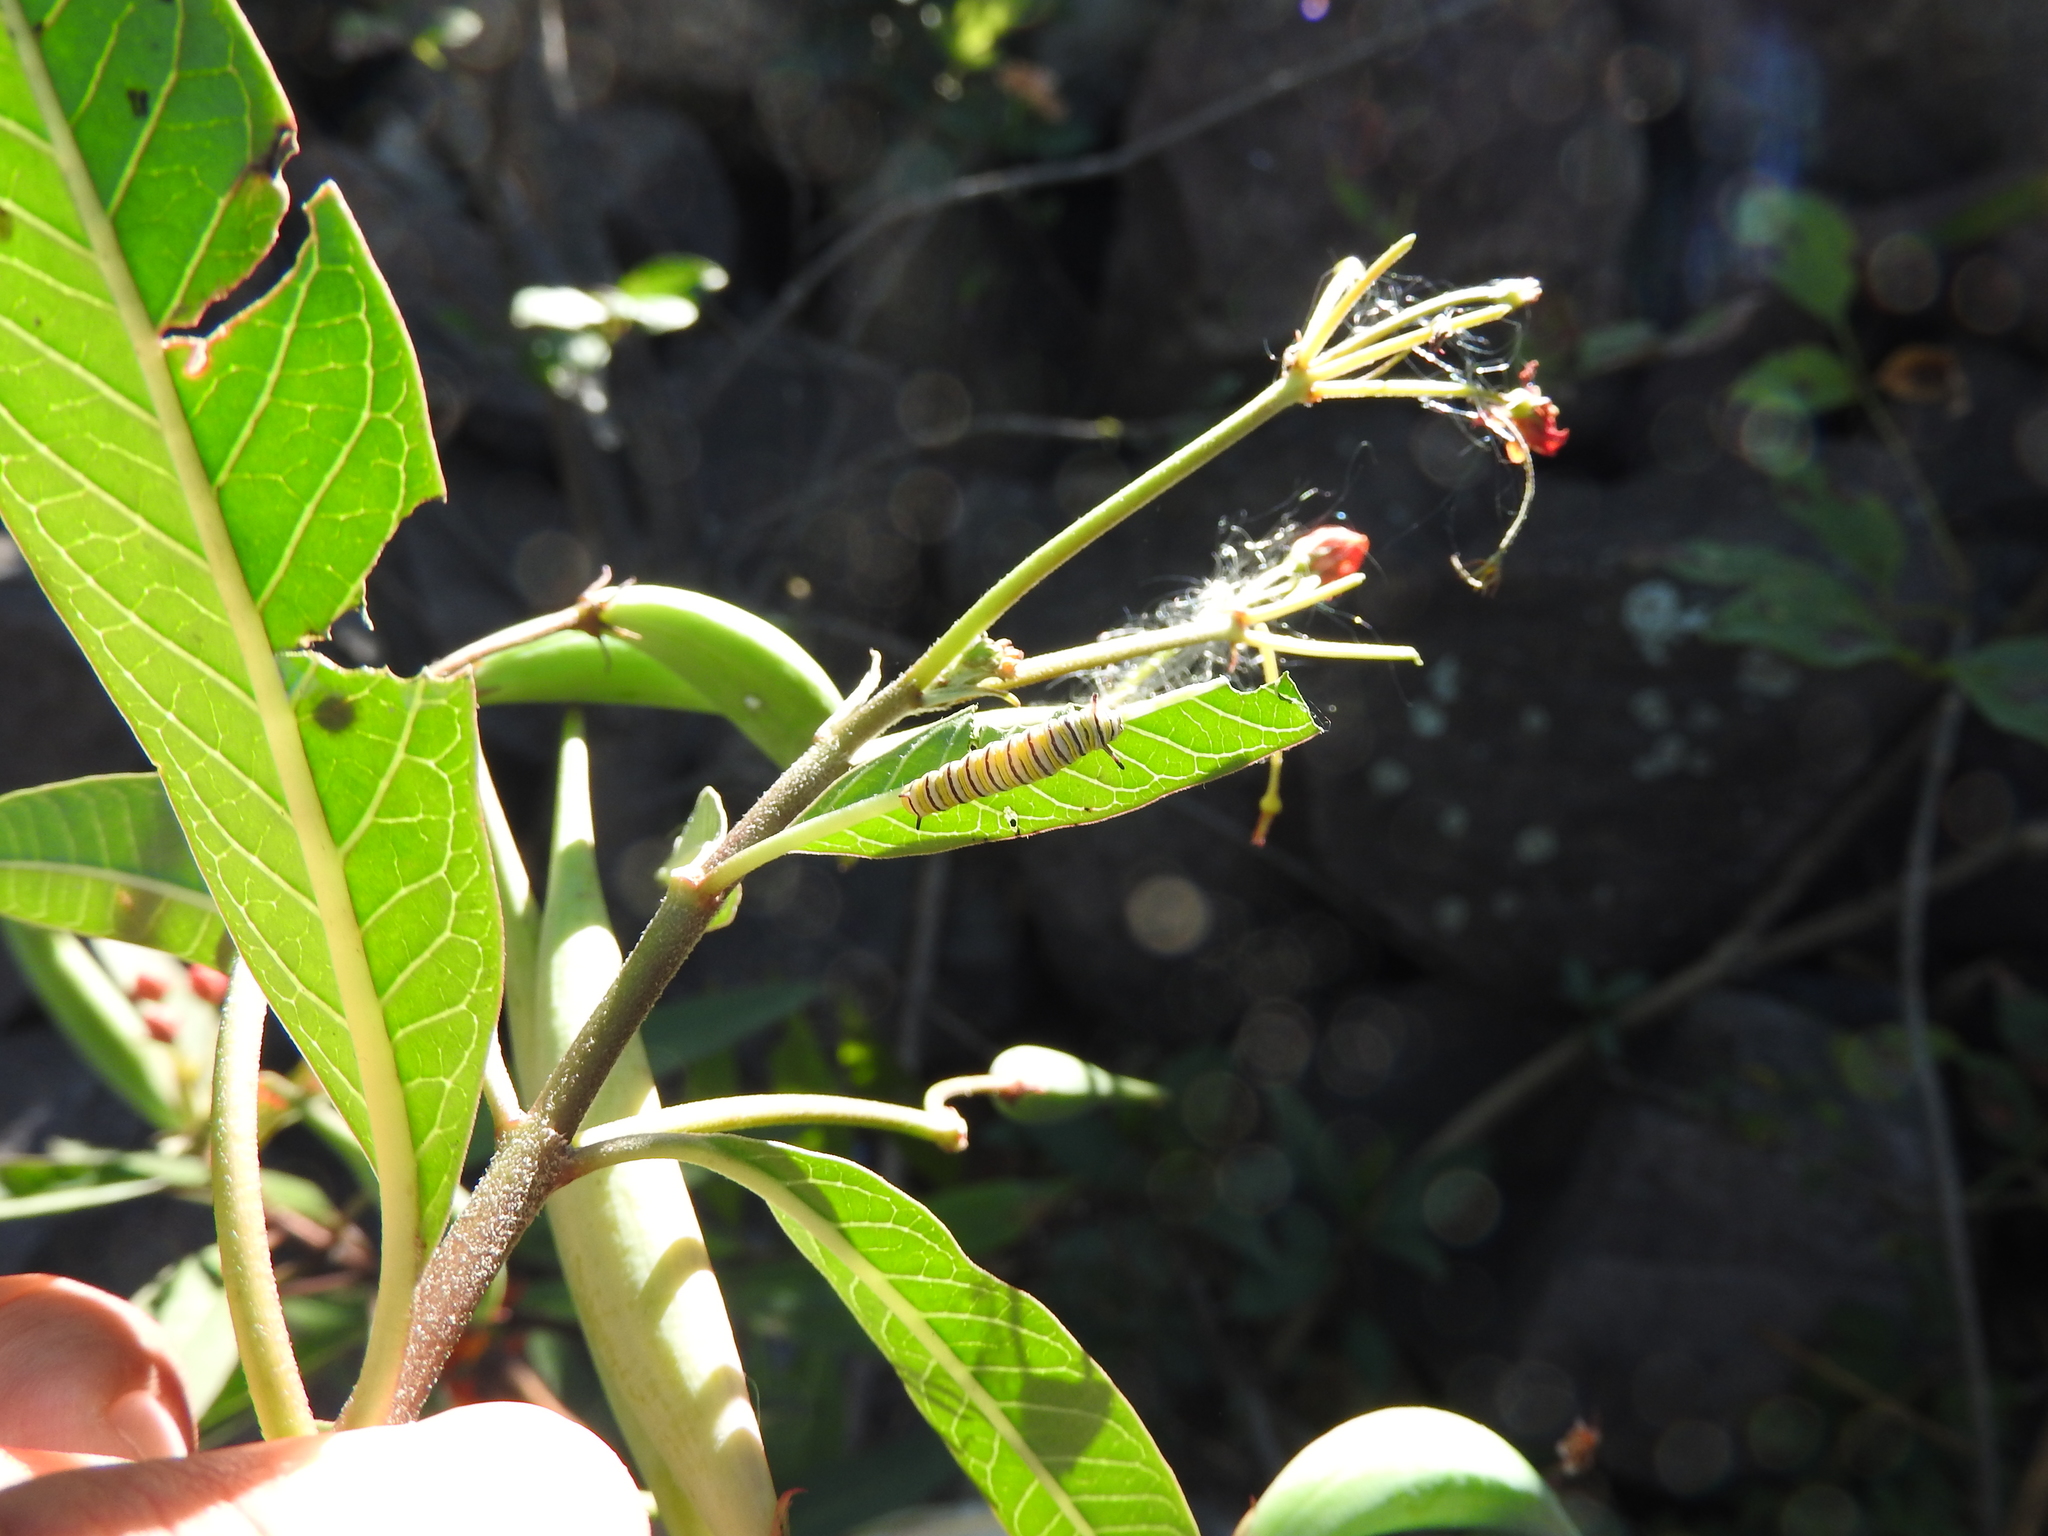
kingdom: Animalia
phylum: Arthropoda
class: Insecta
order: Lepidoptera
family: Nymphalidae
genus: Danaus
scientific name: Danaus plexippus
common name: Monarch
